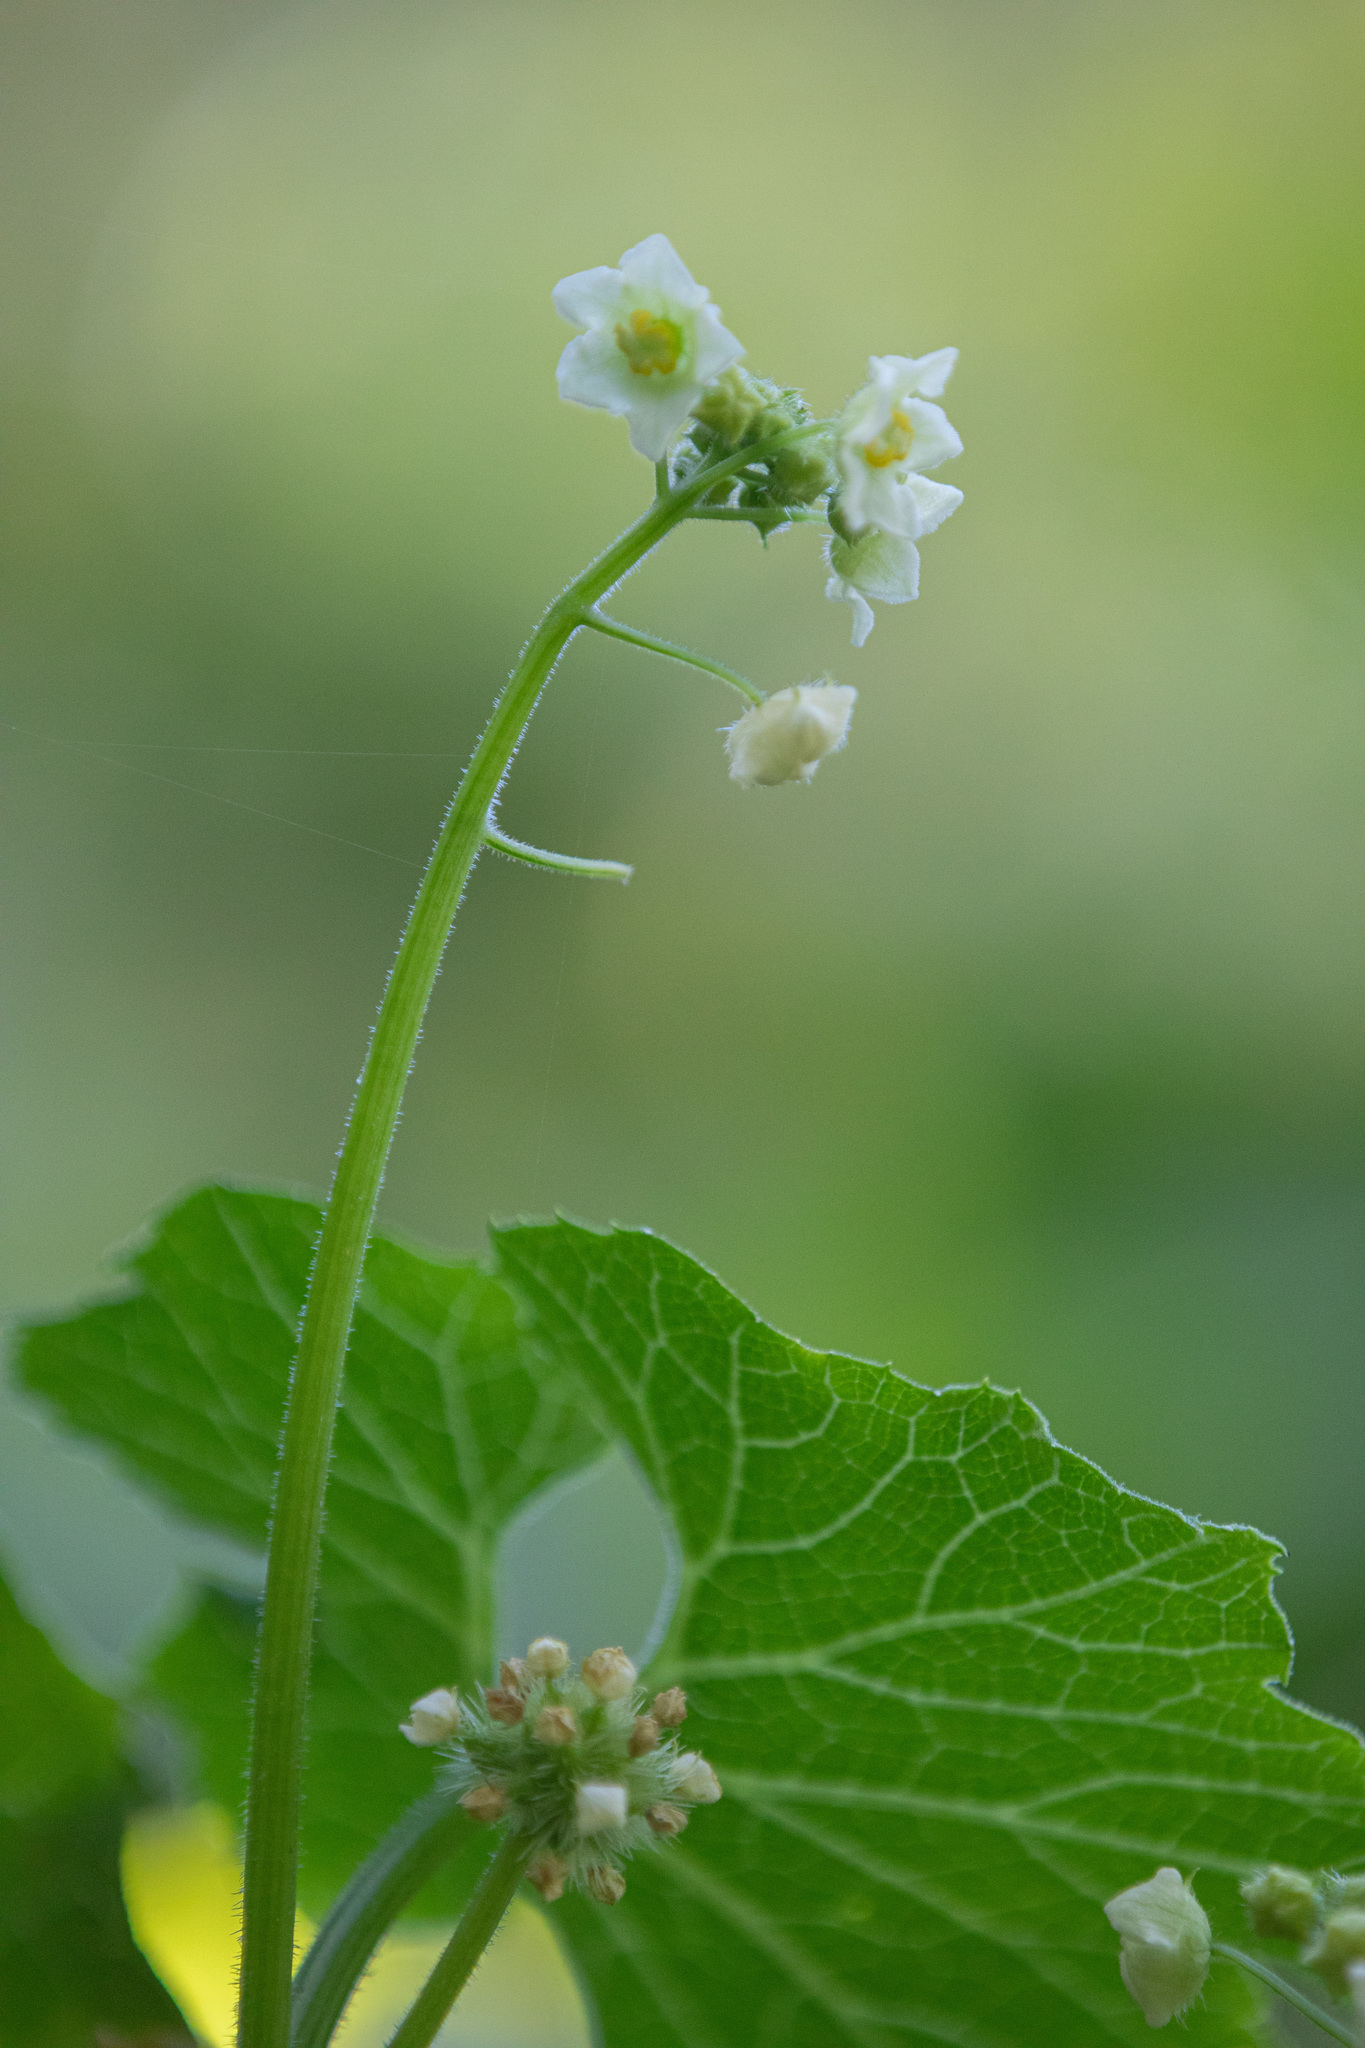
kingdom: Plantae
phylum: Tracheophyta
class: Magnoliopsida
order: Cucurbitales
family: Cucurbitaceae
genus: Sicyos
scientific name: Sicyos australis
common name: Angle-cucumber
